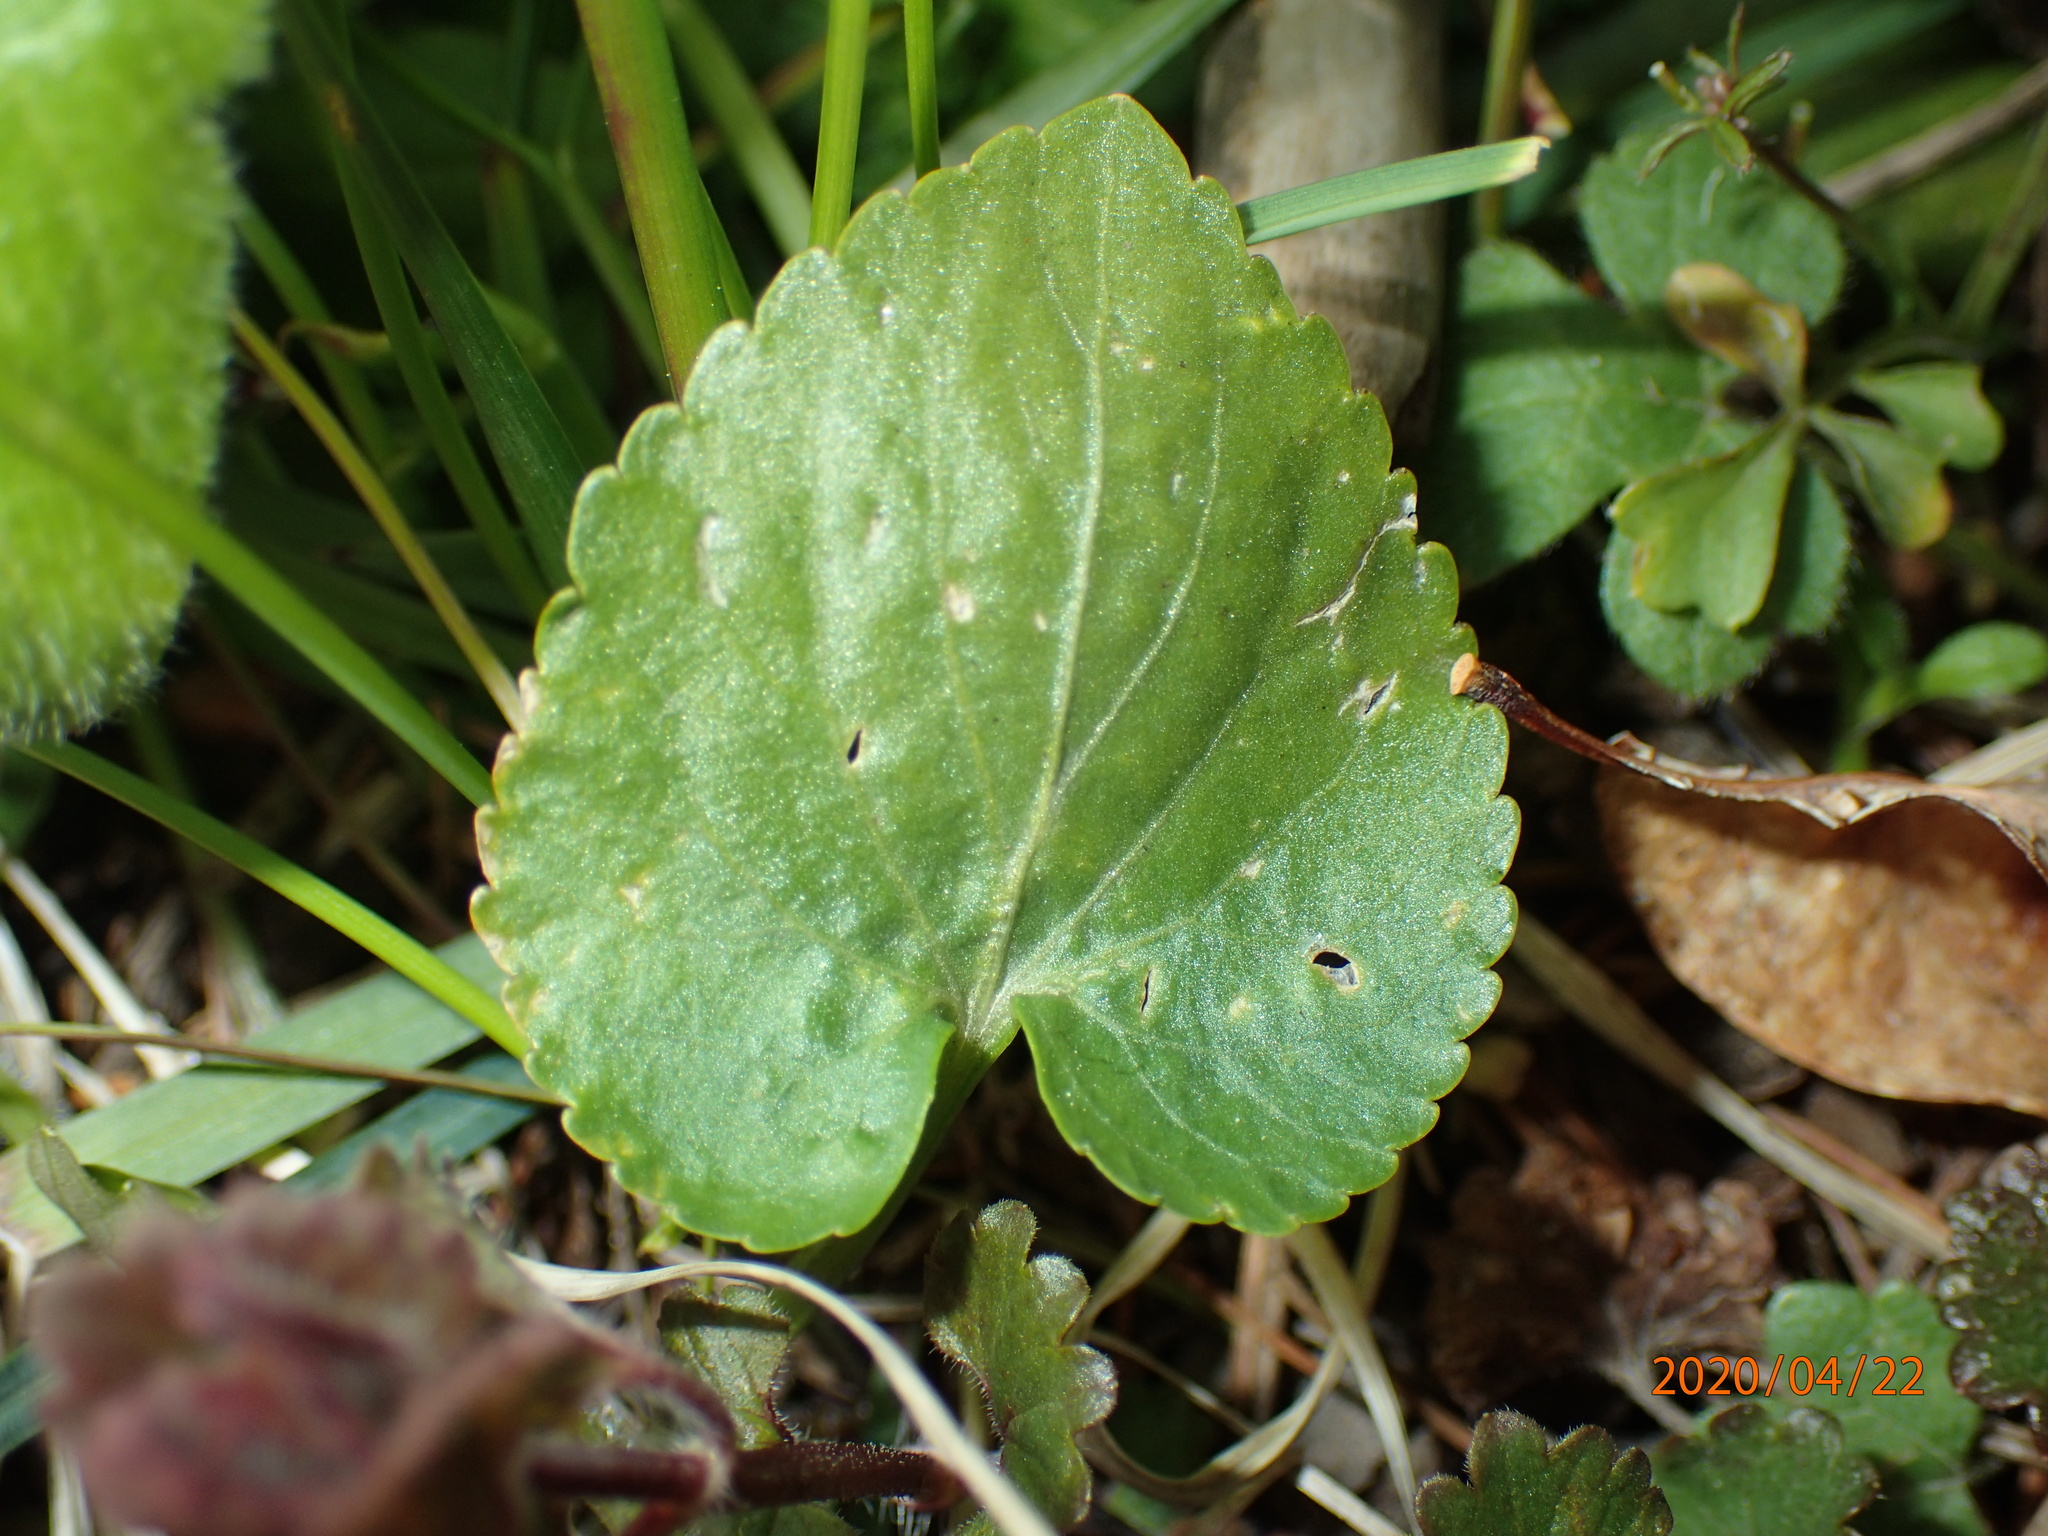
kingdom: Plantae
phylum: Tracheophyta
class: Magnoliopsida
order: Malpighiales
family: Violaceae
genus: Viola
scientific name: Viola sororia
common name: Dooryard violet
